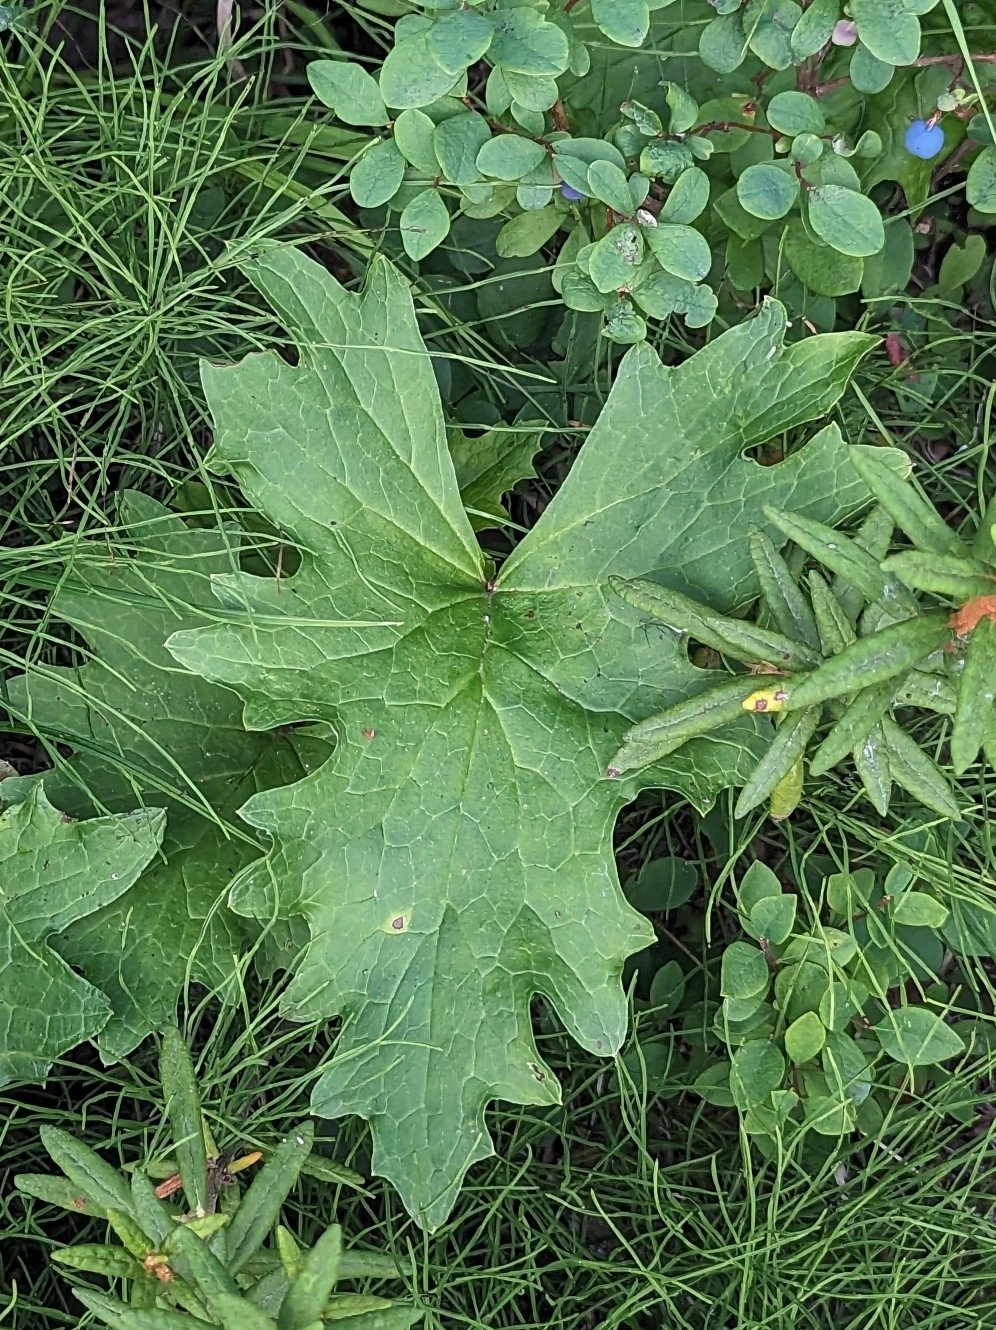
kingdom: Plantae
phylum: Tracheophyta
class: Magnoliopsida
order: Asterales
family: Asteraceae
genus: Petasites
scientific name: Petasites frigidus
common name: Arctic butterbur
